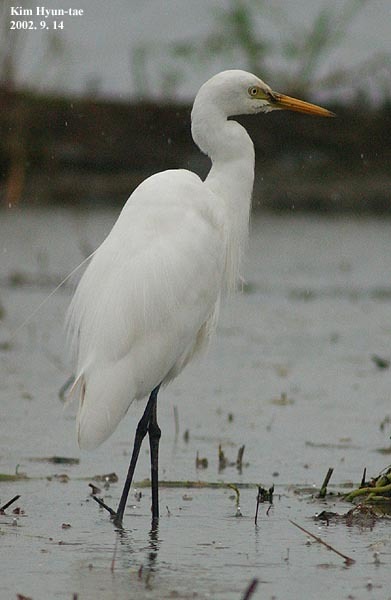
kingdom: Animalia
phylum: Chordata
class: Aves
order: Pelecaniformes
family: Ardeidae
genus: Egretta
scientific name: Egretta intermedia
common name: Intermediate egret
